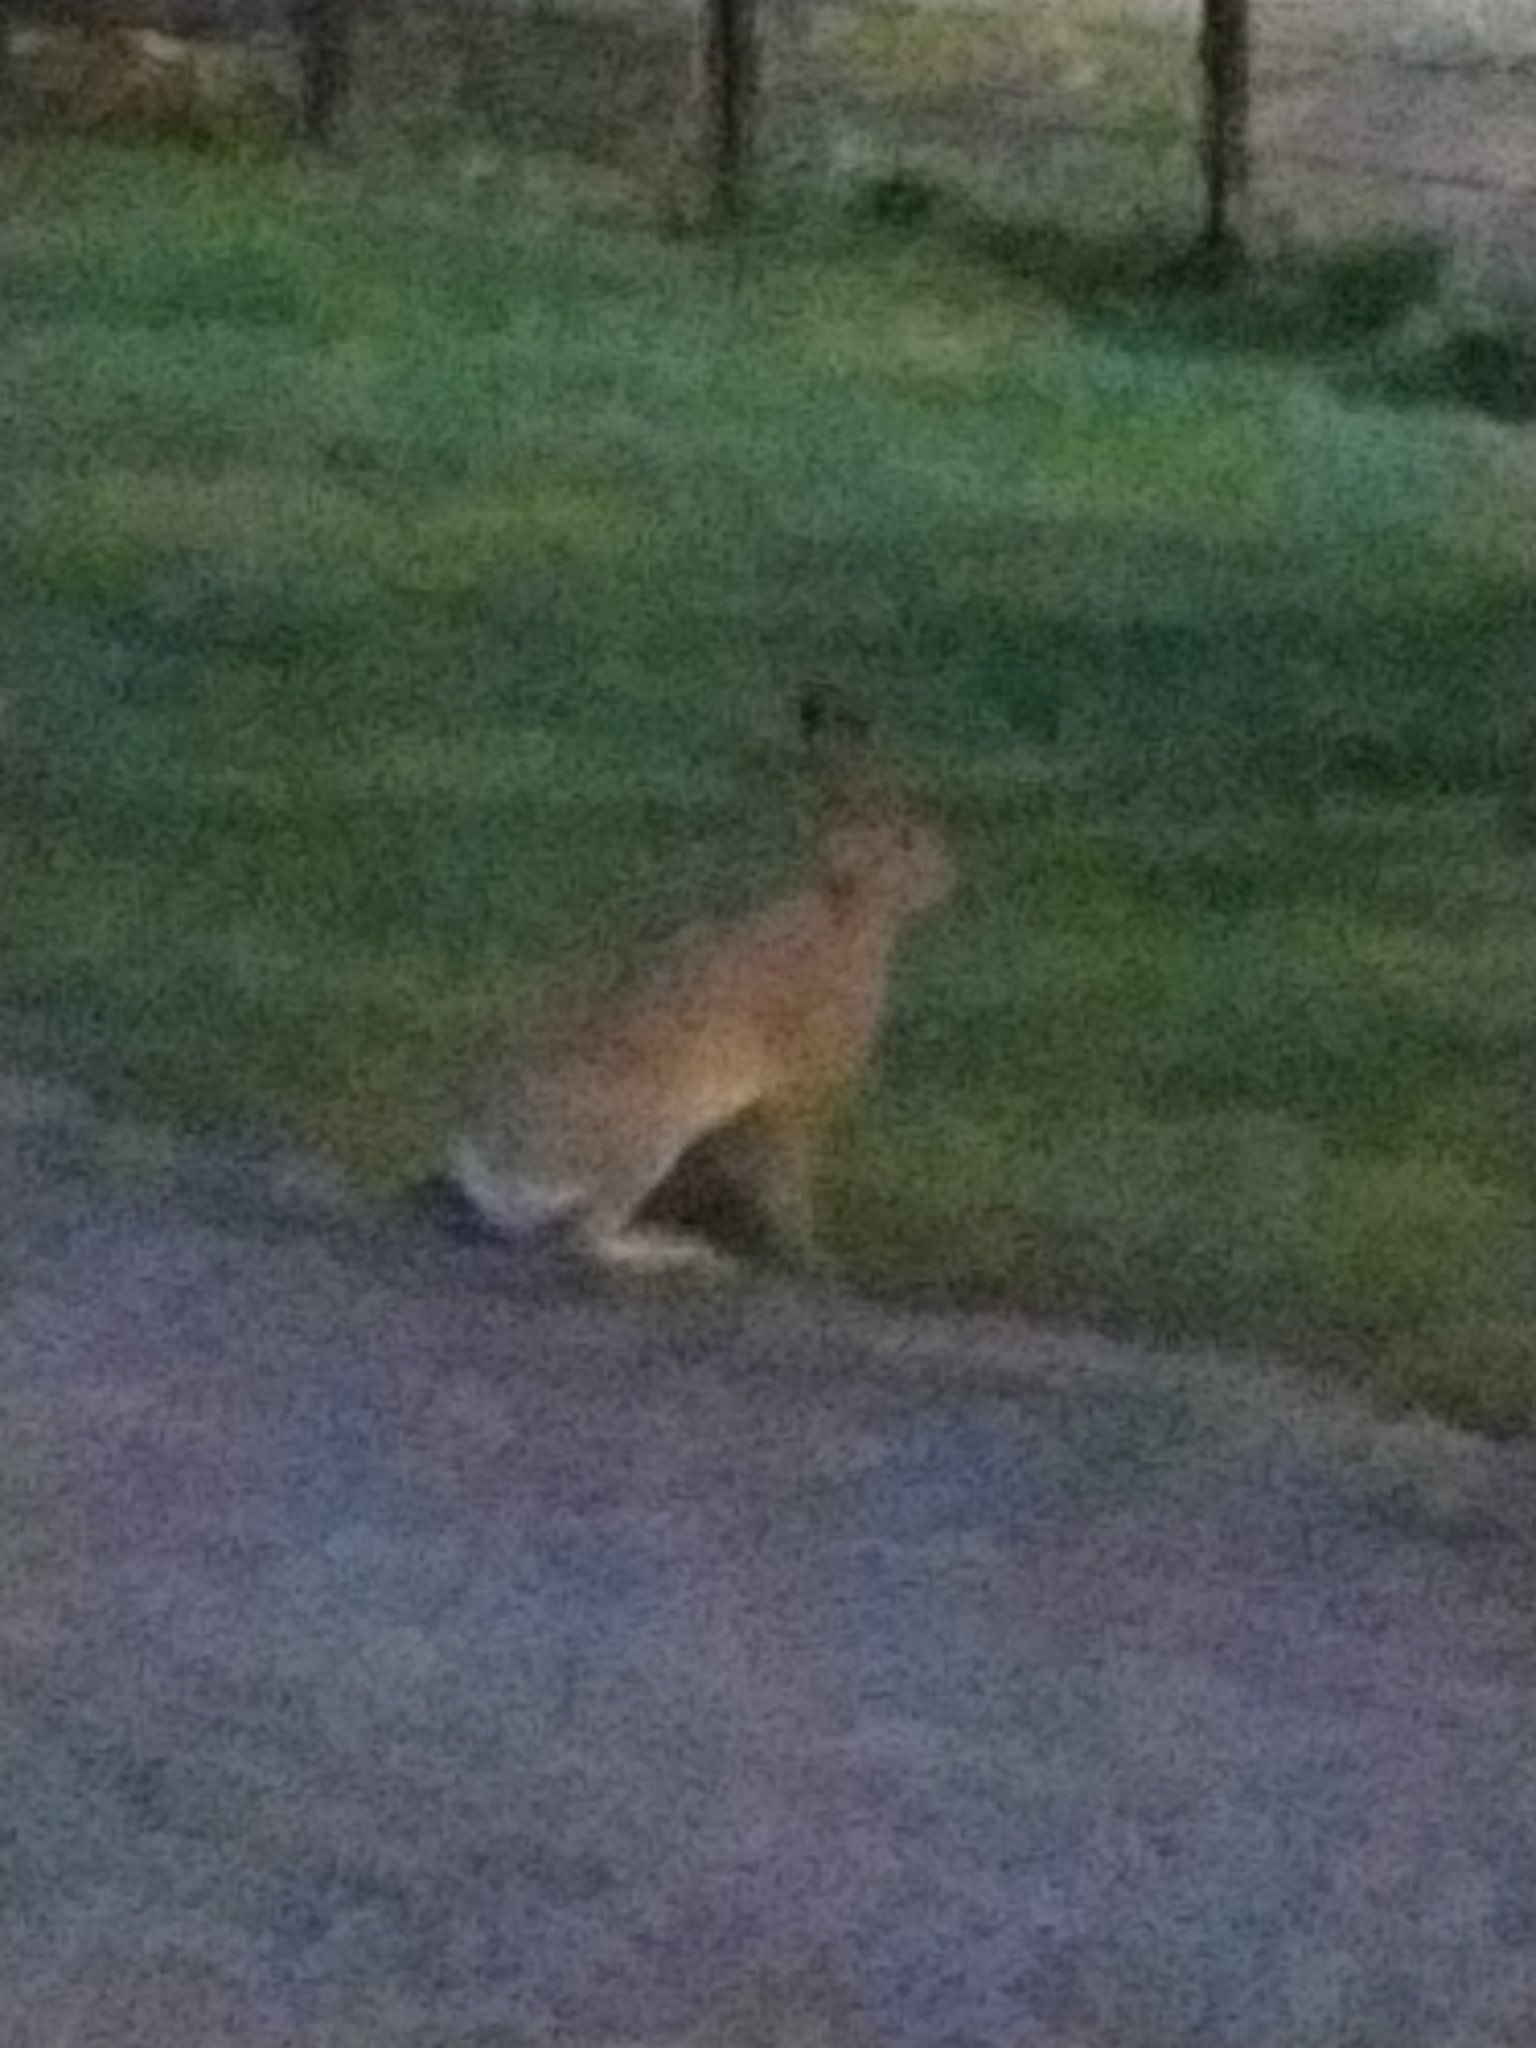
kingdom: Animalia
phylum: Chordata
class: Mammalia
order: Lagomorpha
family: Leporidae
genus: Lepus
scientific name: Lepus europaeus
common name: European hare
